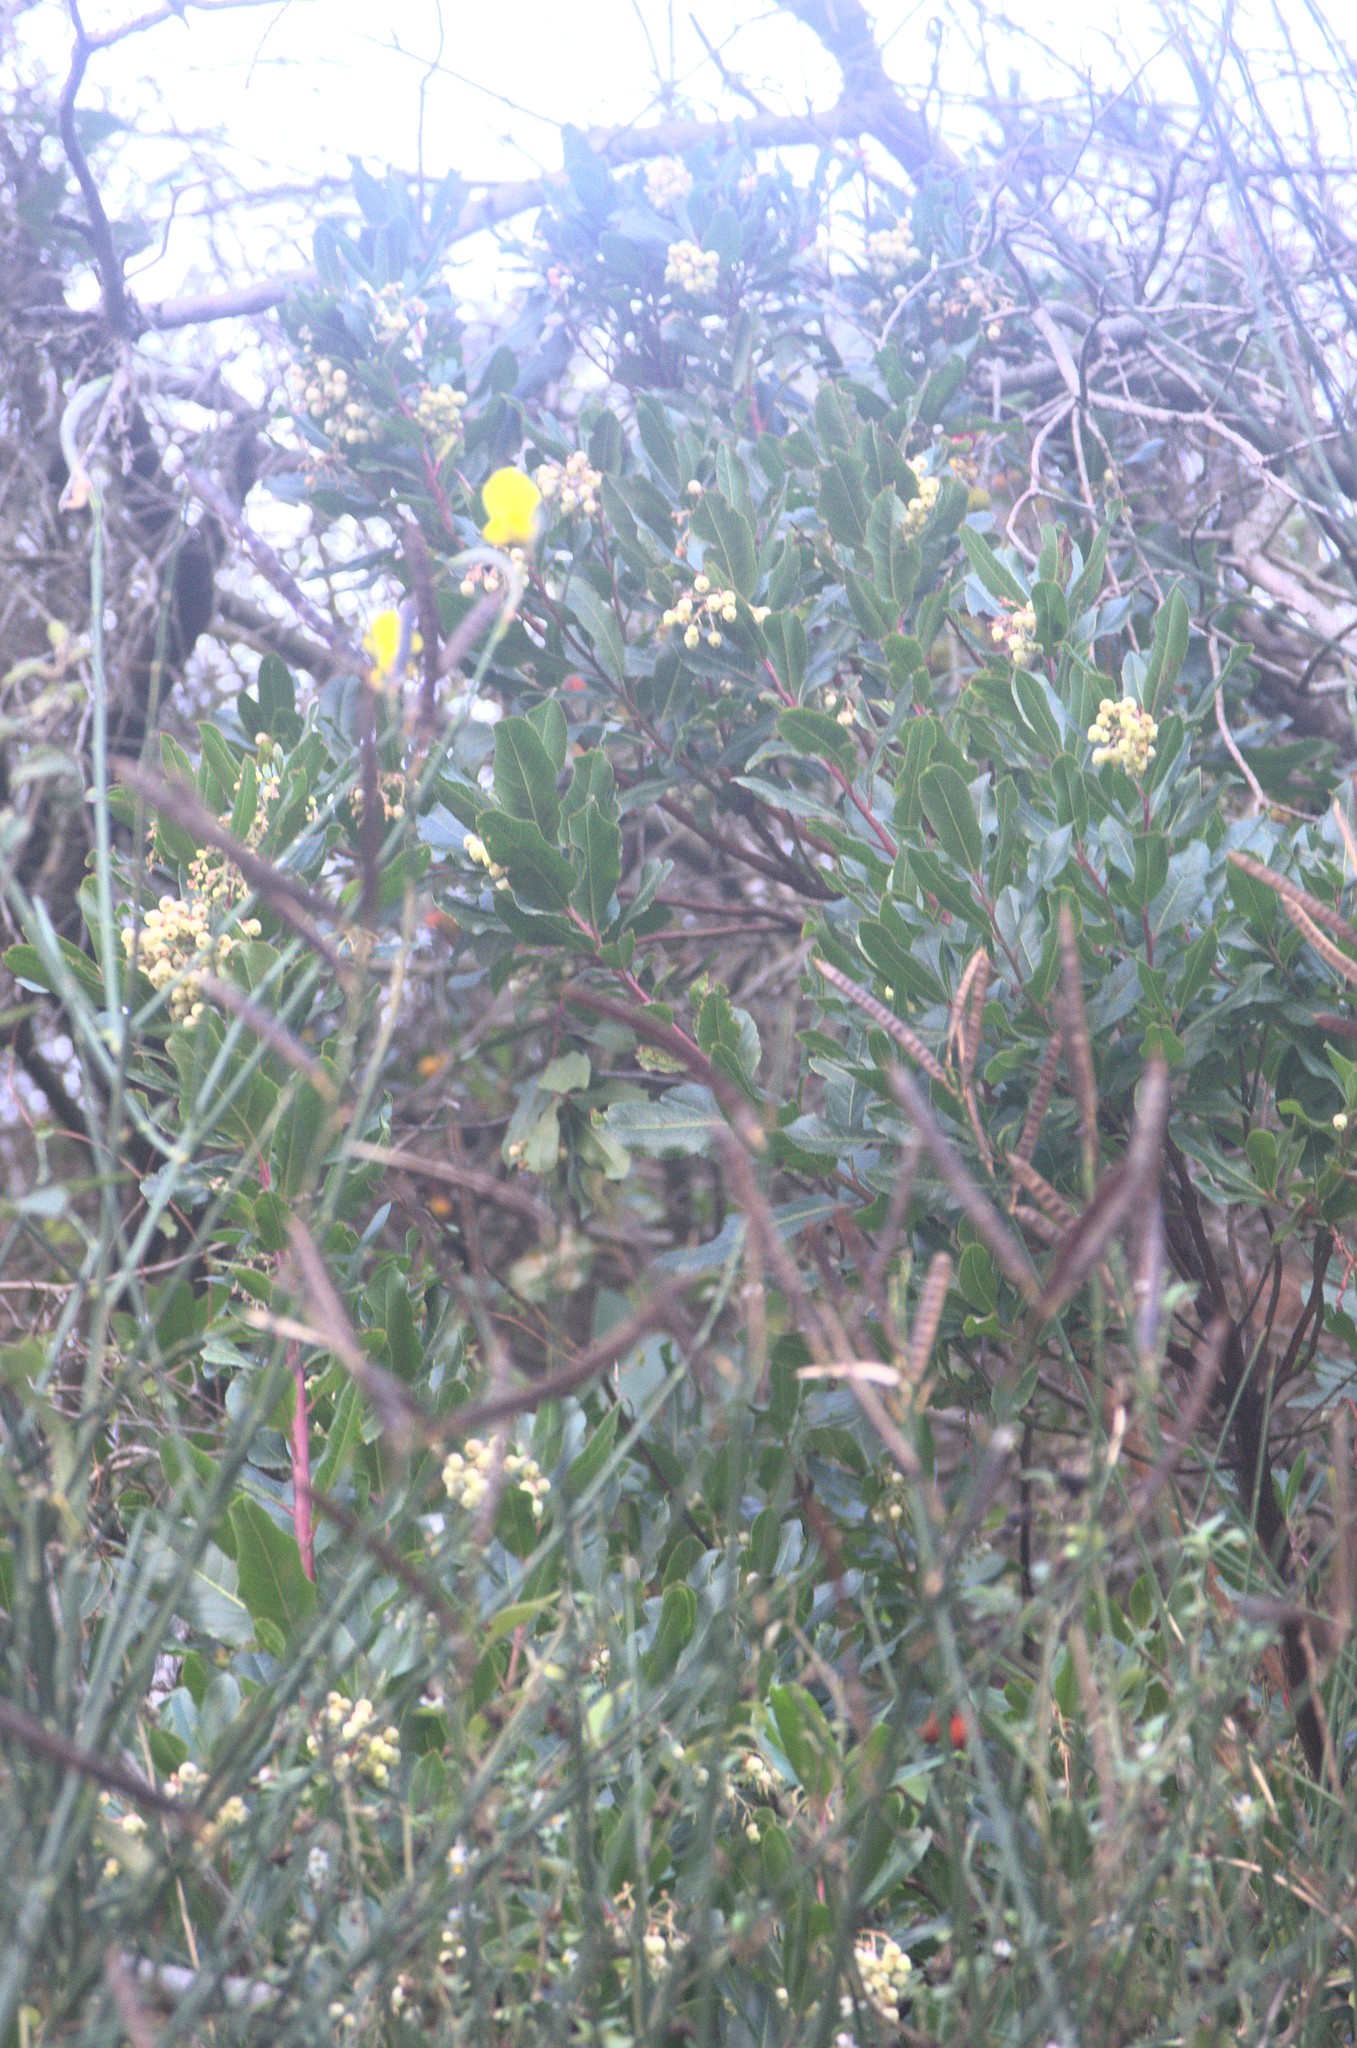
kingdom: Plantae
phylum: Tracheophyta
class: Magnoliopsida
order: Ericales
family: Ericaceae
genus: Arbutus
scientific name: Arbutus unedo
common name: Strawberry-tree
